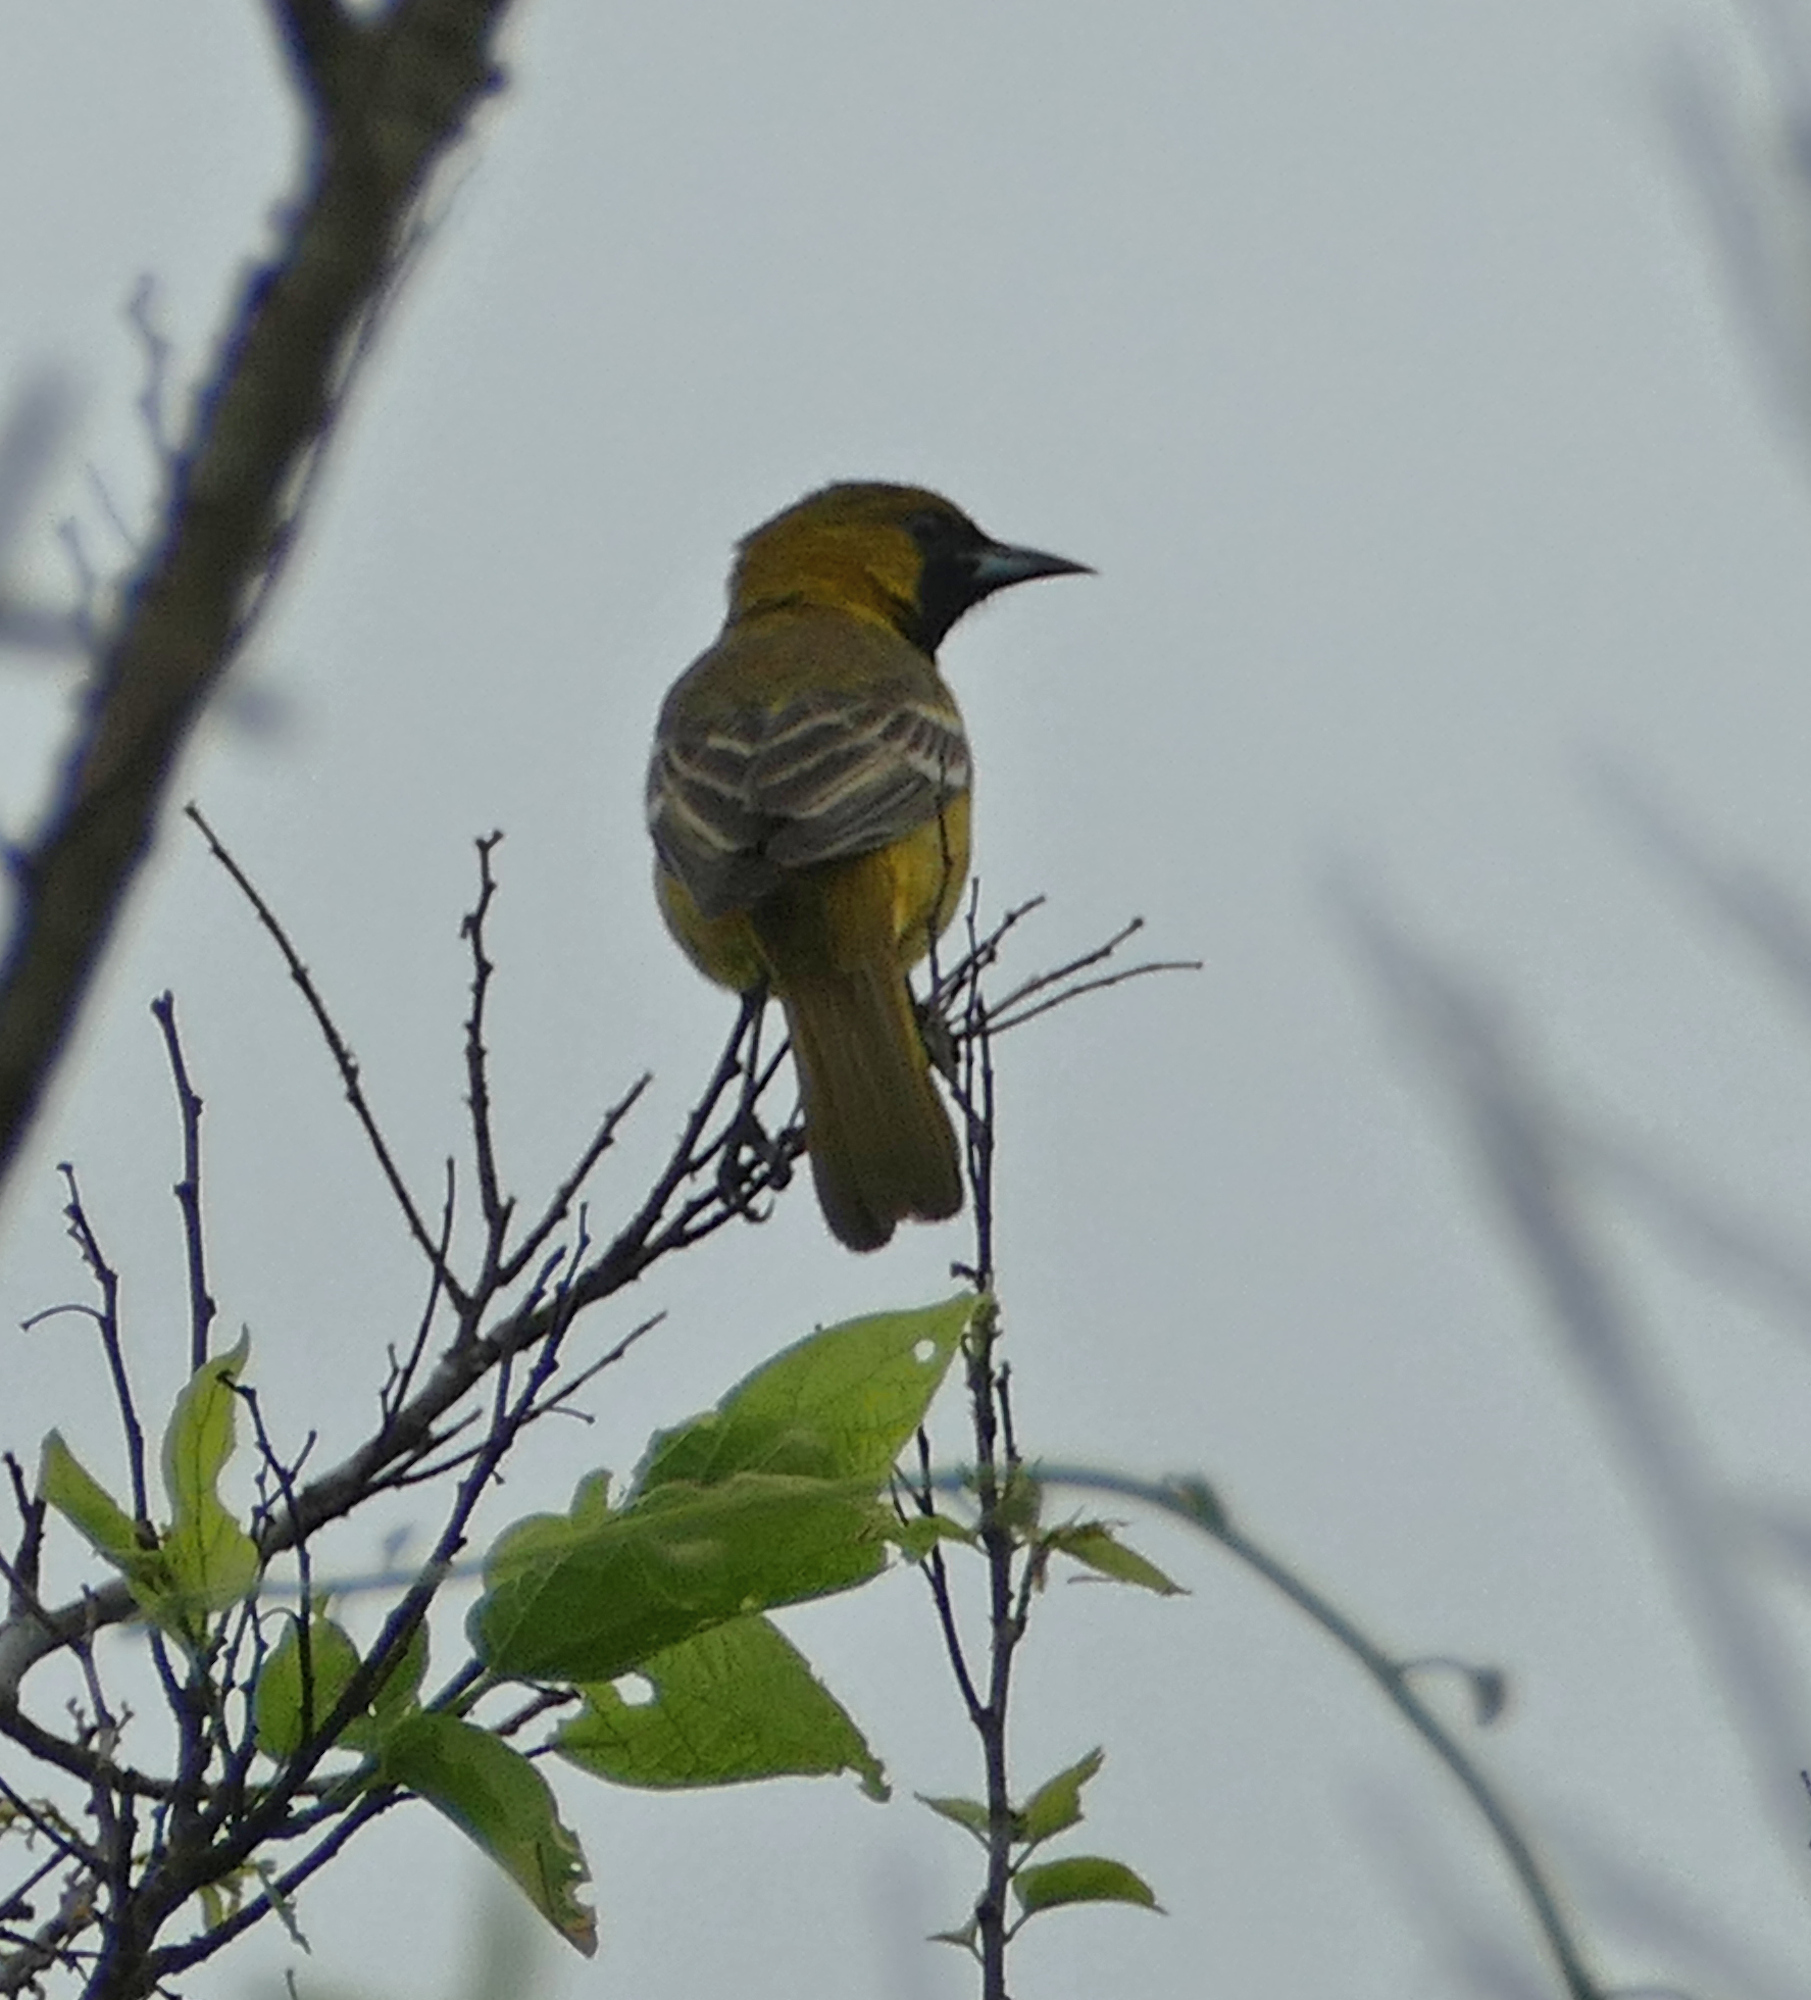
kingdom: Animalia
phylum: Chordata
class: Aves
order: Passeriformes
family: Icteridae
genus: Icterus
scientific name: Icterus spurius
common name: Orchard oriole
